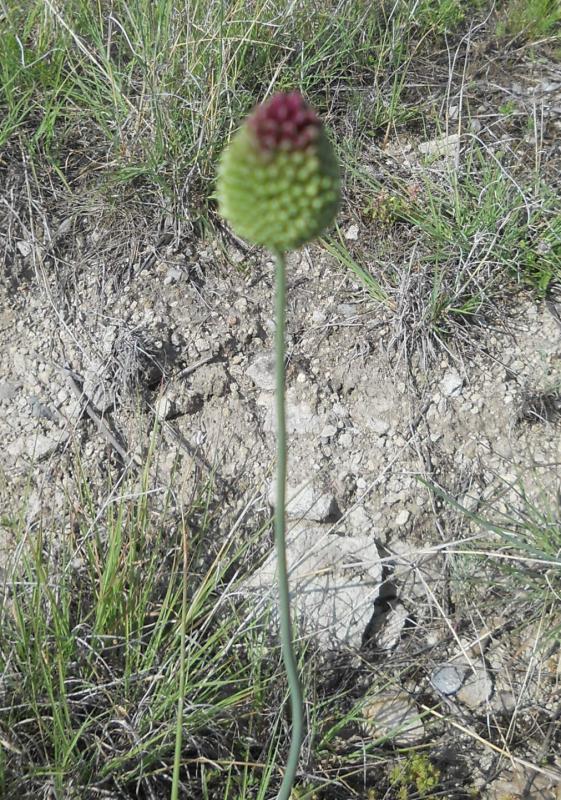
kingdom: Plantae
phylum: Tracheophyta
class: Liliopsida
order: Asparagales
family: Amaryllidaceae
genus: Allium
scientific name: Allium sphaerocephalon
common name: Round-headed leek
